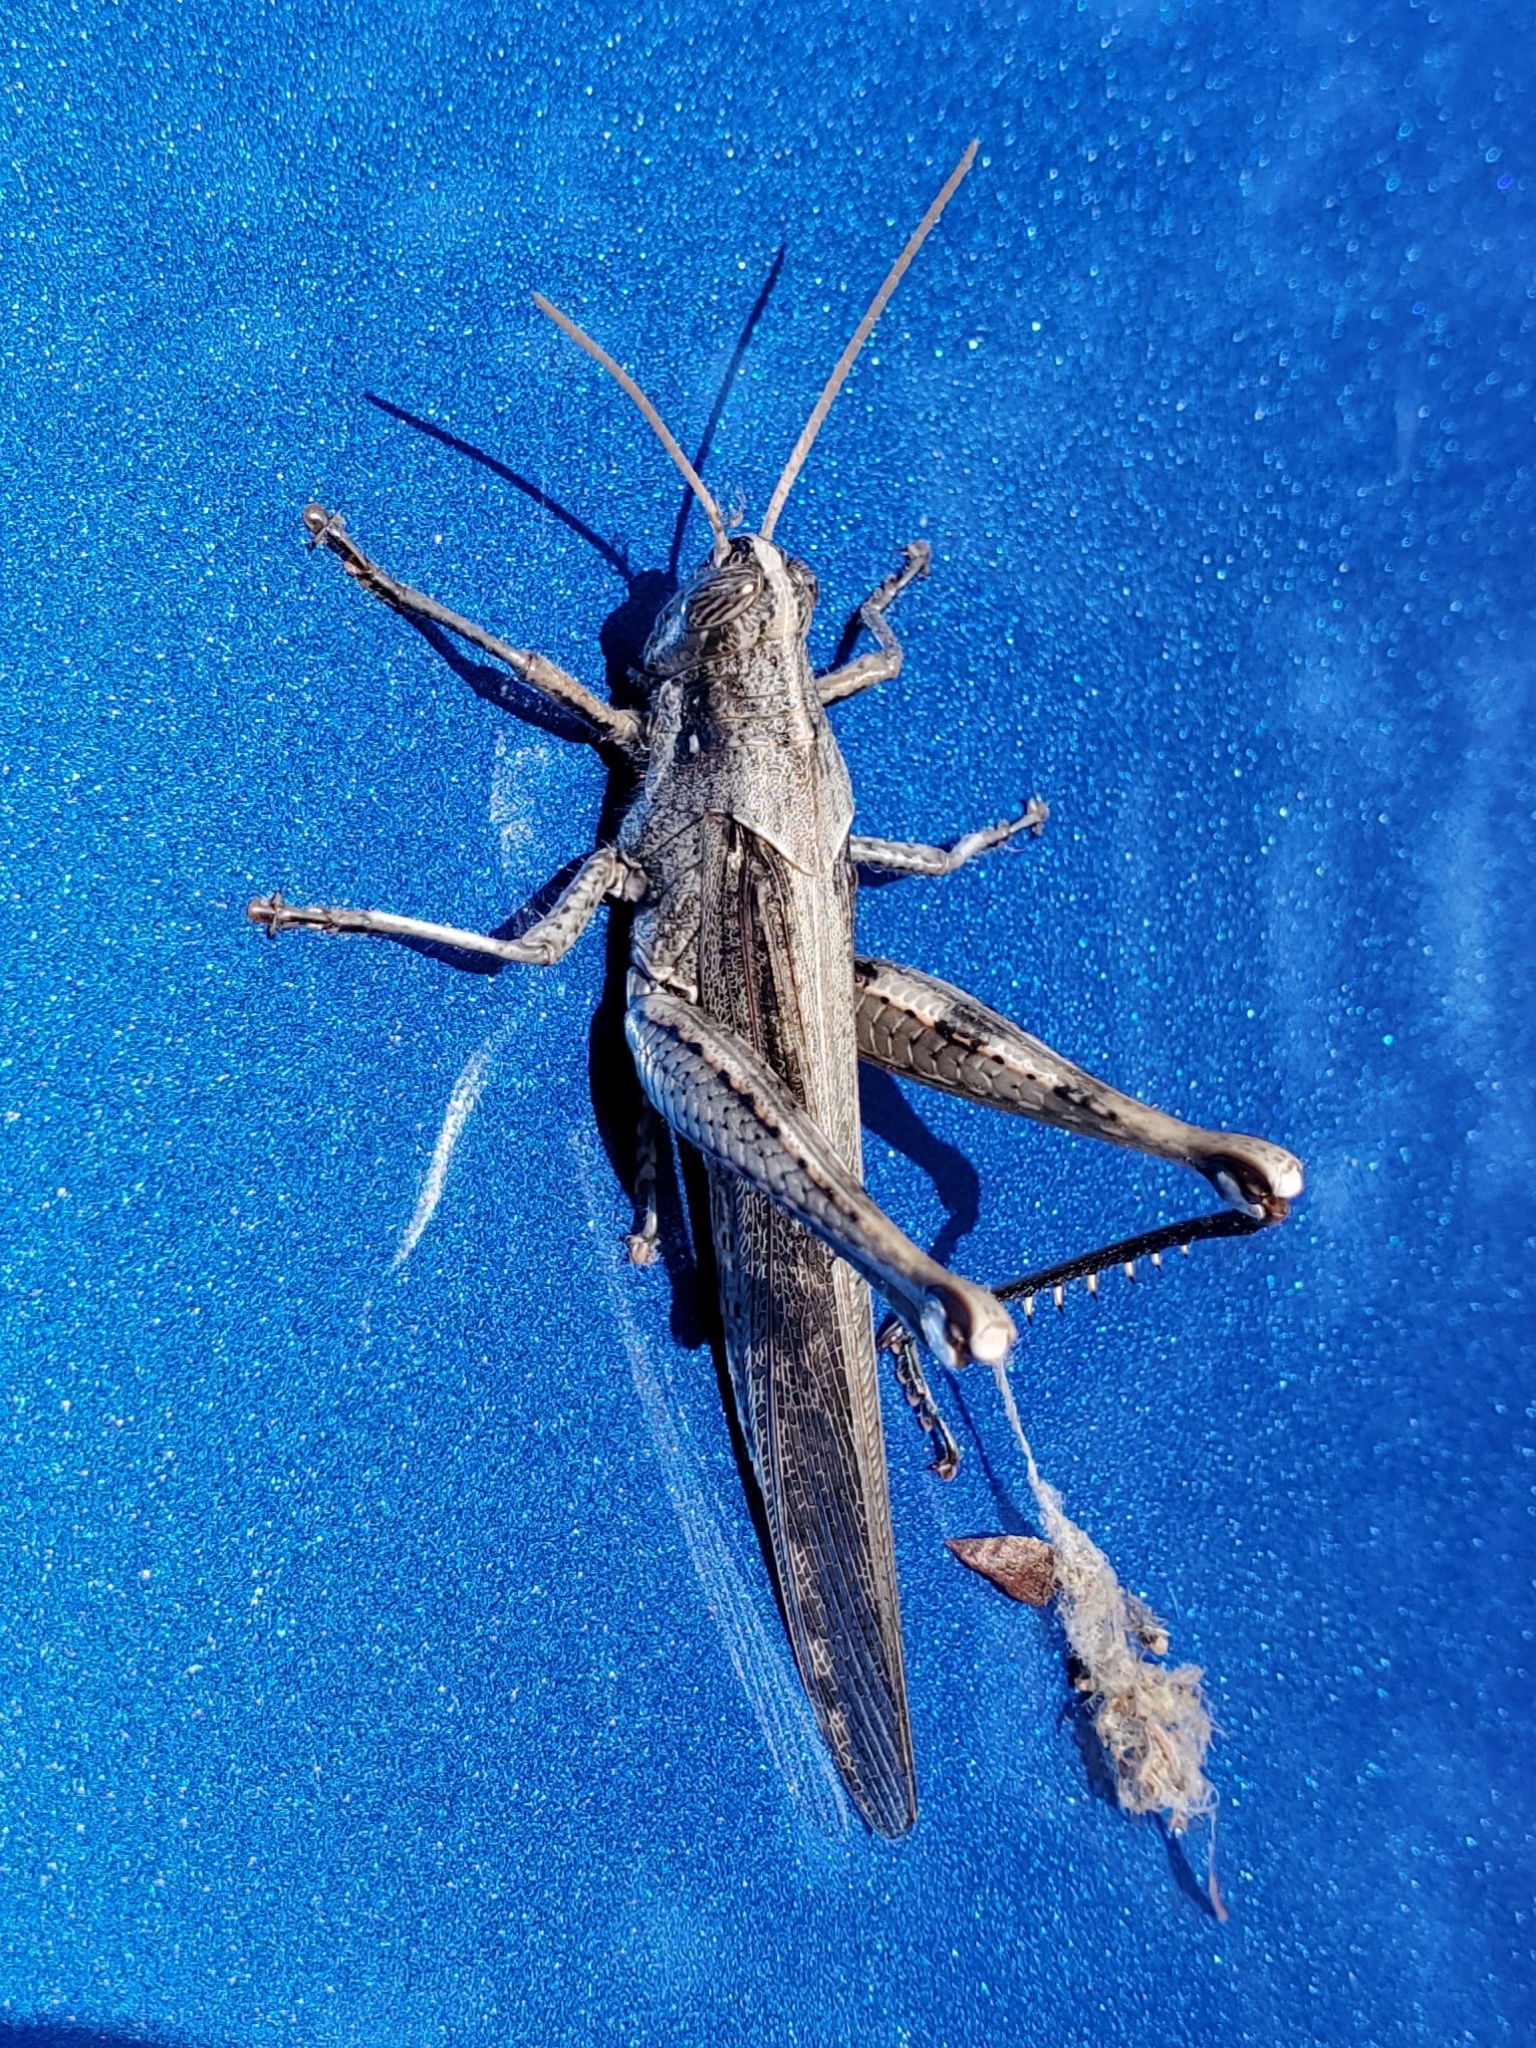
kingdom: Animalia
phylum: Arthropoda
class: Insecta
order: Orthoptera
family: Acrididae
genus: Schistocerca
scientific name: Schistocerca nitens
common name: Vagrant grasshopper
